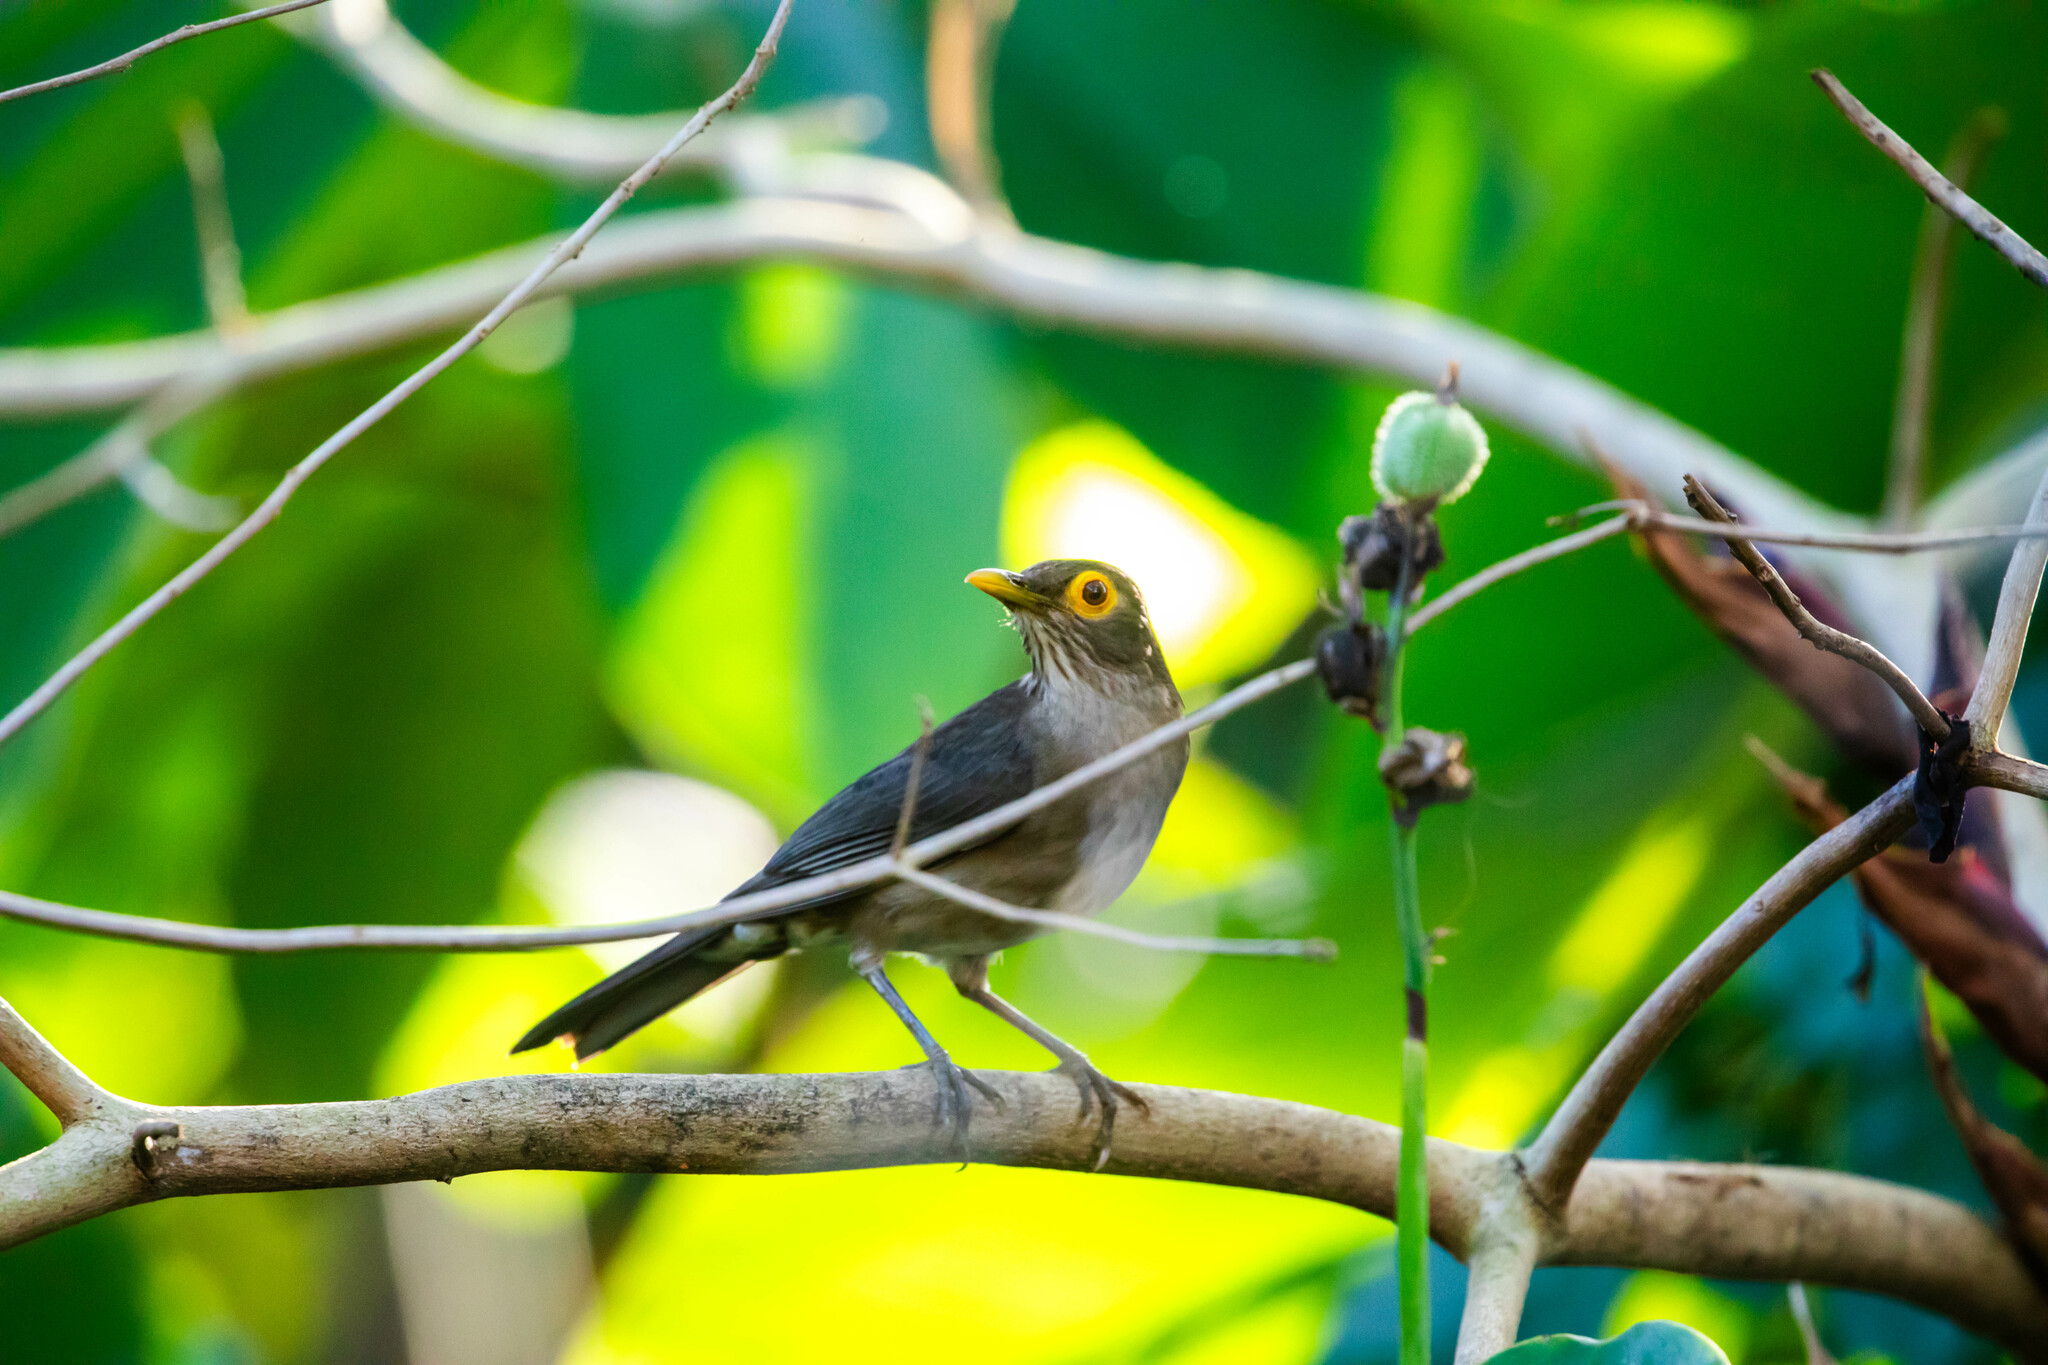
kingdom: Animalia
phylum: Chordata
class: Aves
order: Passeriformes
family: Turdidae
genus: Turdus
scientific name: Turdus nudigenis
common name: Spectacled thrush
